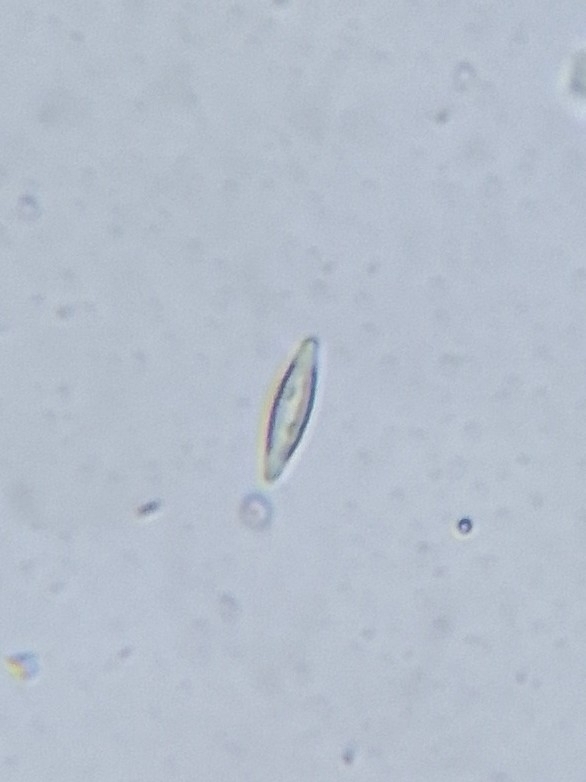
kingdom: Chromista
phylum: Ochrophyta
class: Bacillariophyceae
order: Naviculales
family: Naviculaceae
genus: Navicula
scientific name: Navicula
